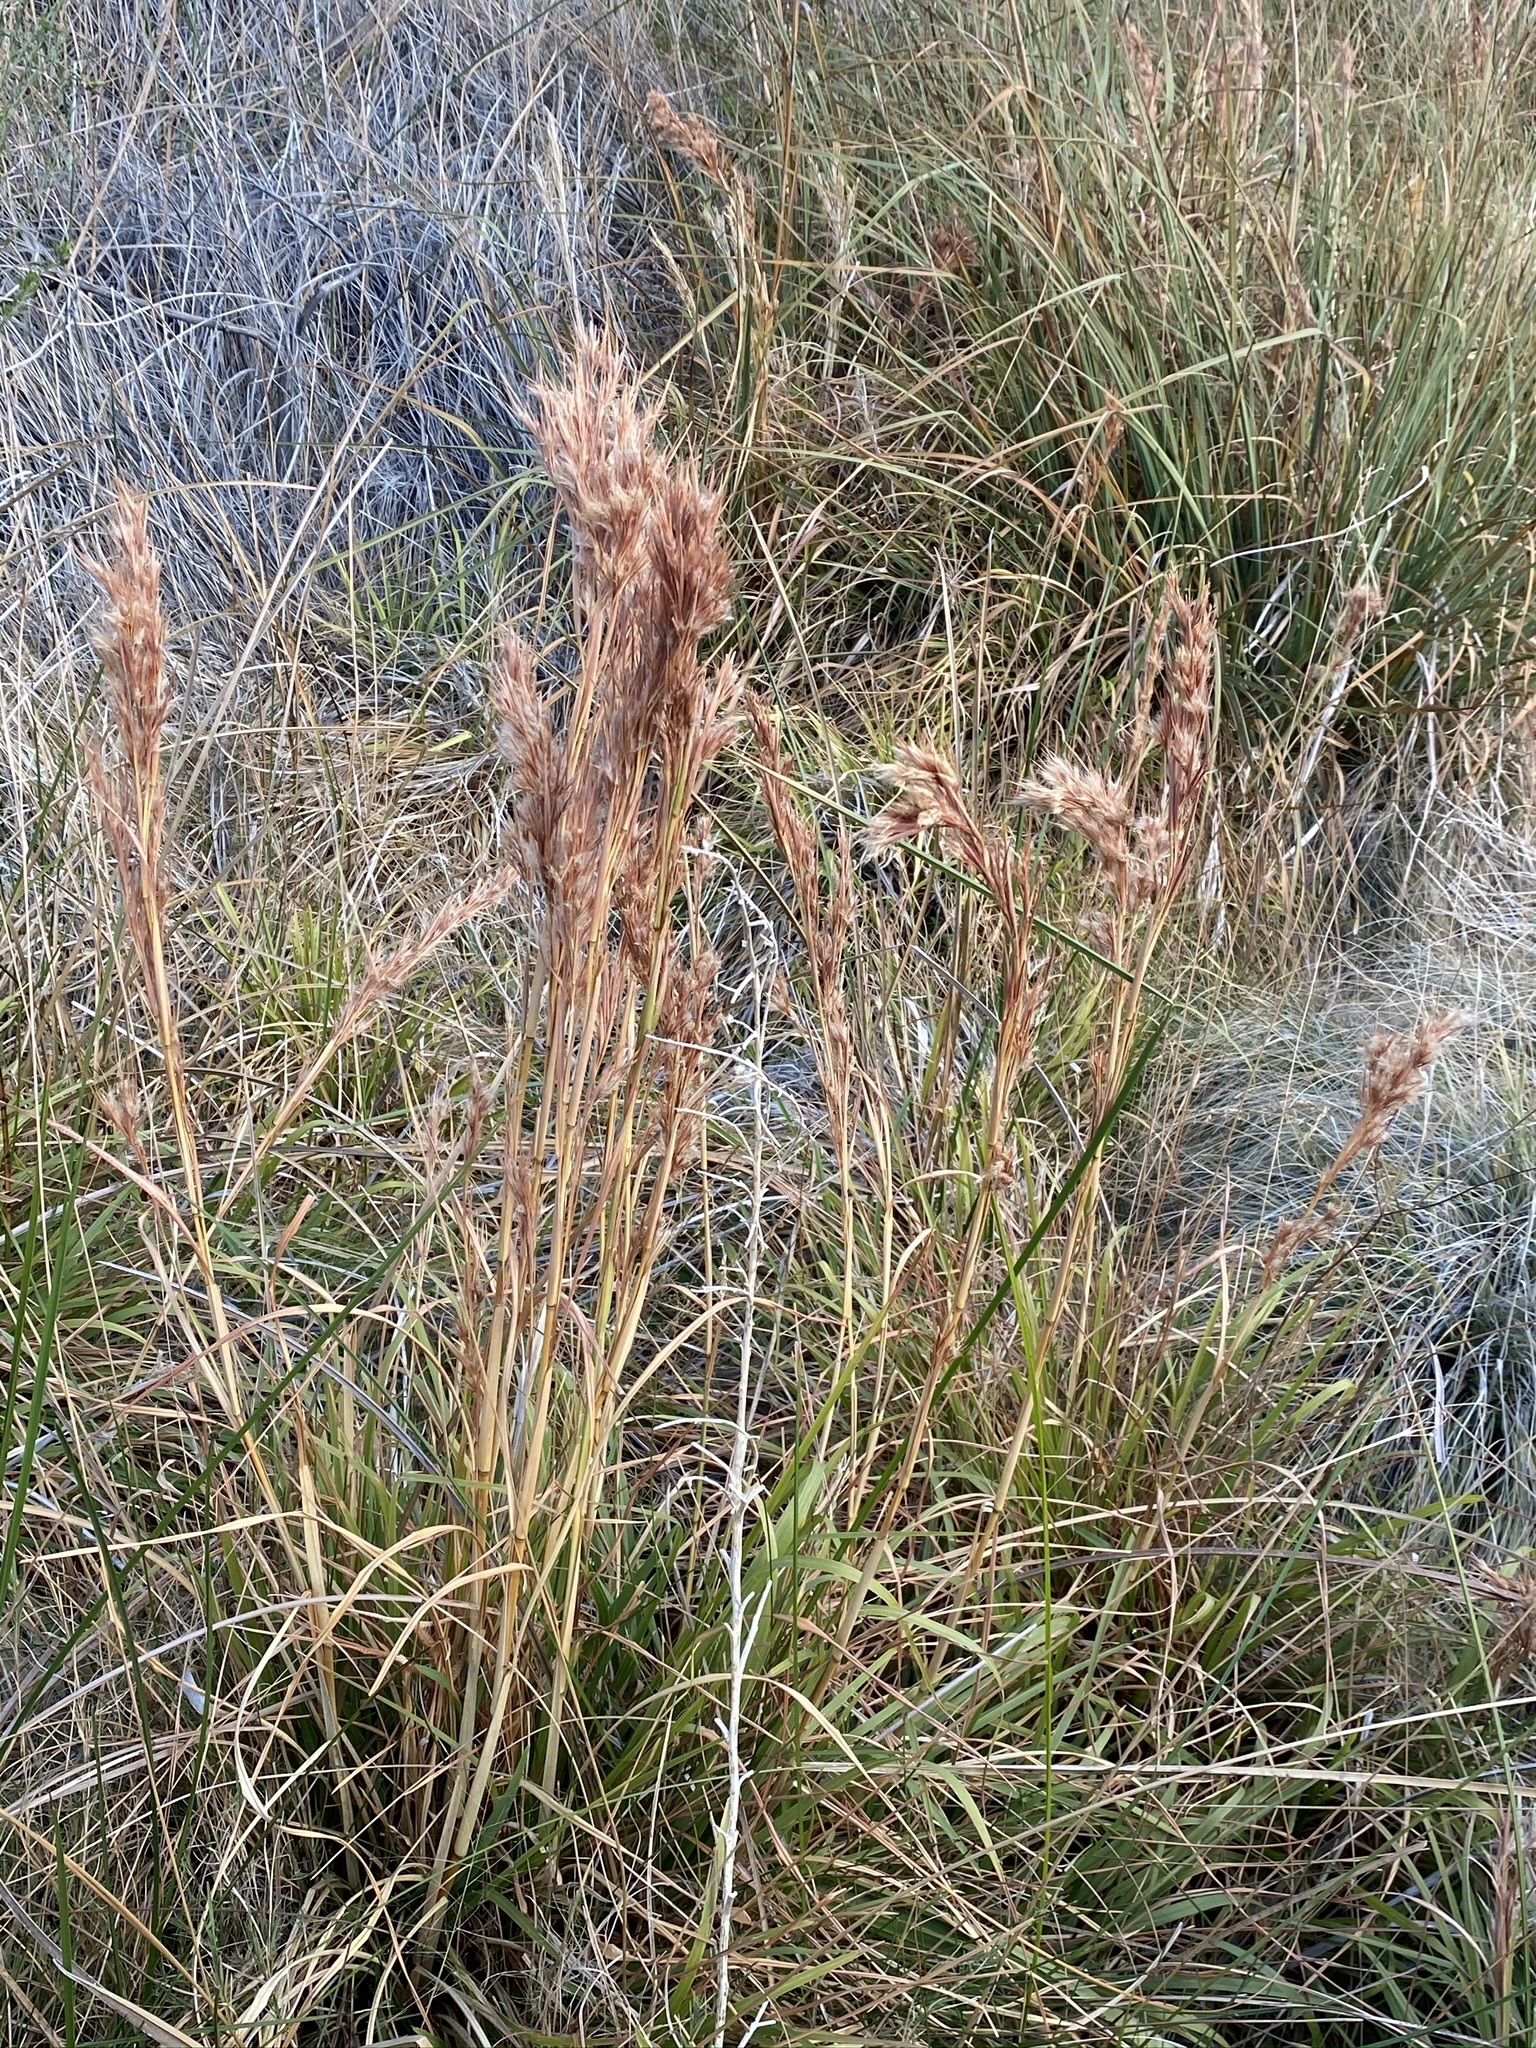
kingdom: Plantae
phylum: Tracheophyta
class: Liliopsida
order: Poales
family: Poaceae
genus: Andropogon
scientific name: Andropogon eremicus
